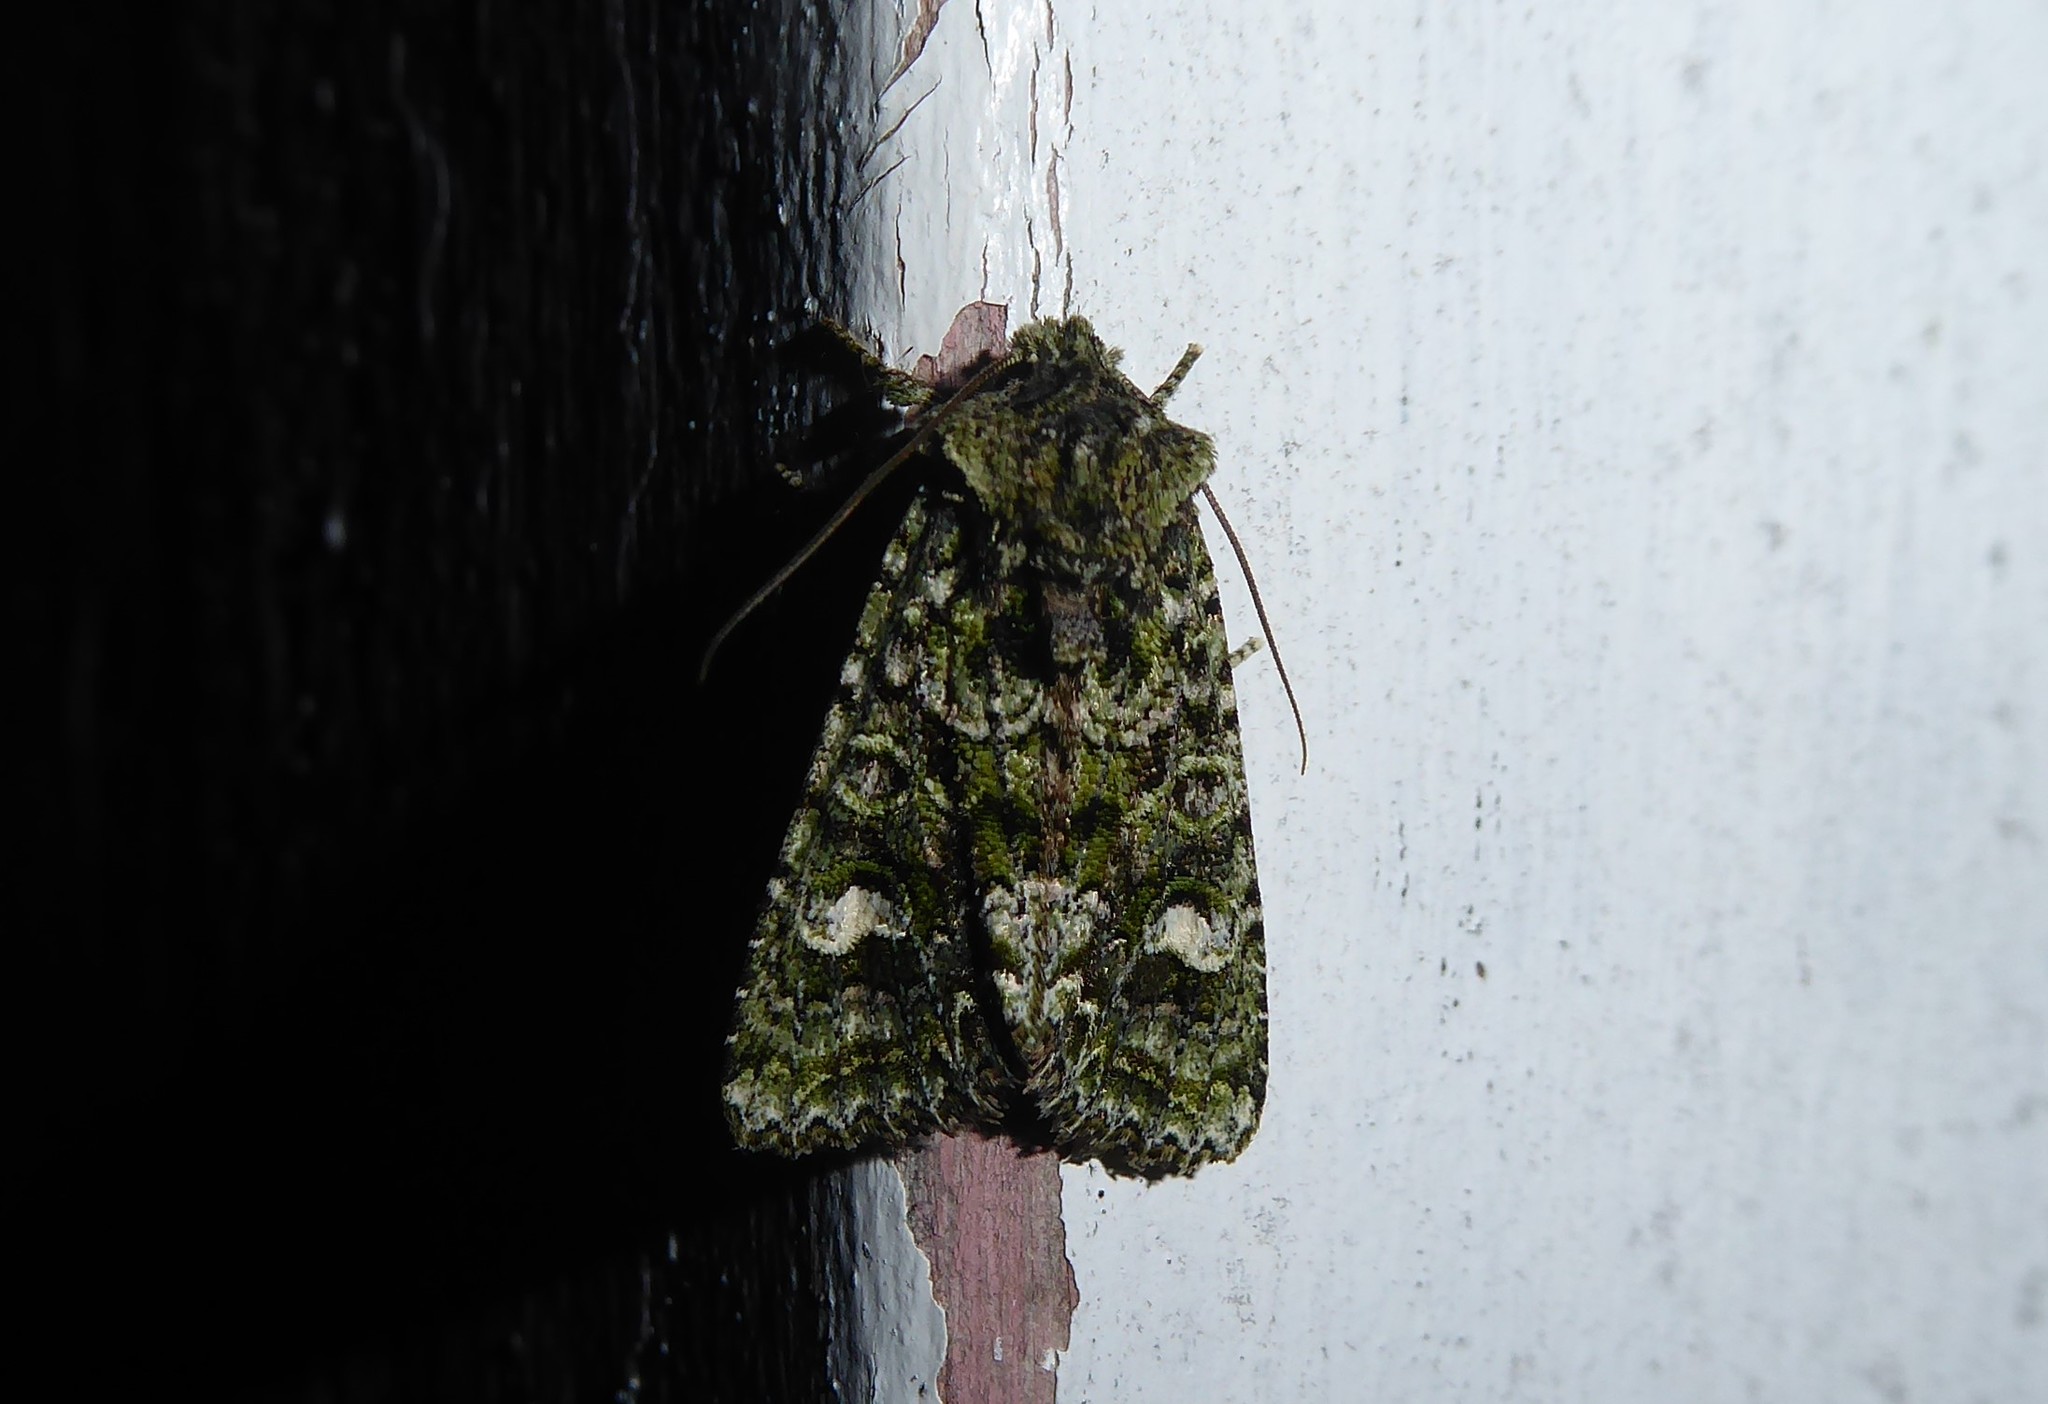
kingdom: Animalia
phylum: Arthropoda
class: Insecta
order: Lepidoptera
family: Noctuidae
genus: Ichneutica
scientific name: Ichneutica
